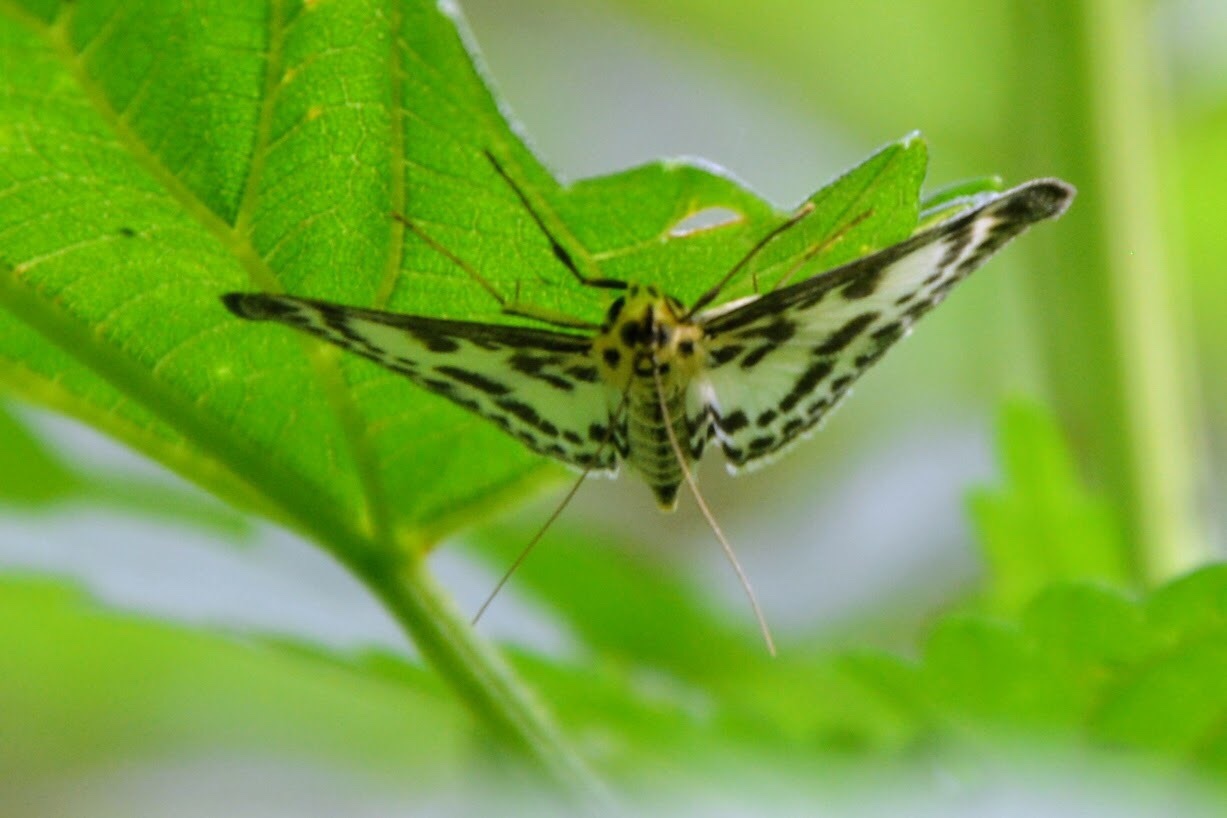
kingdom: Animalia
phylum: Arthropoda
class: Insecta
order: Lepidoptera
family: Crambidae
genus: Anania
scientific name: Anania hortulata
